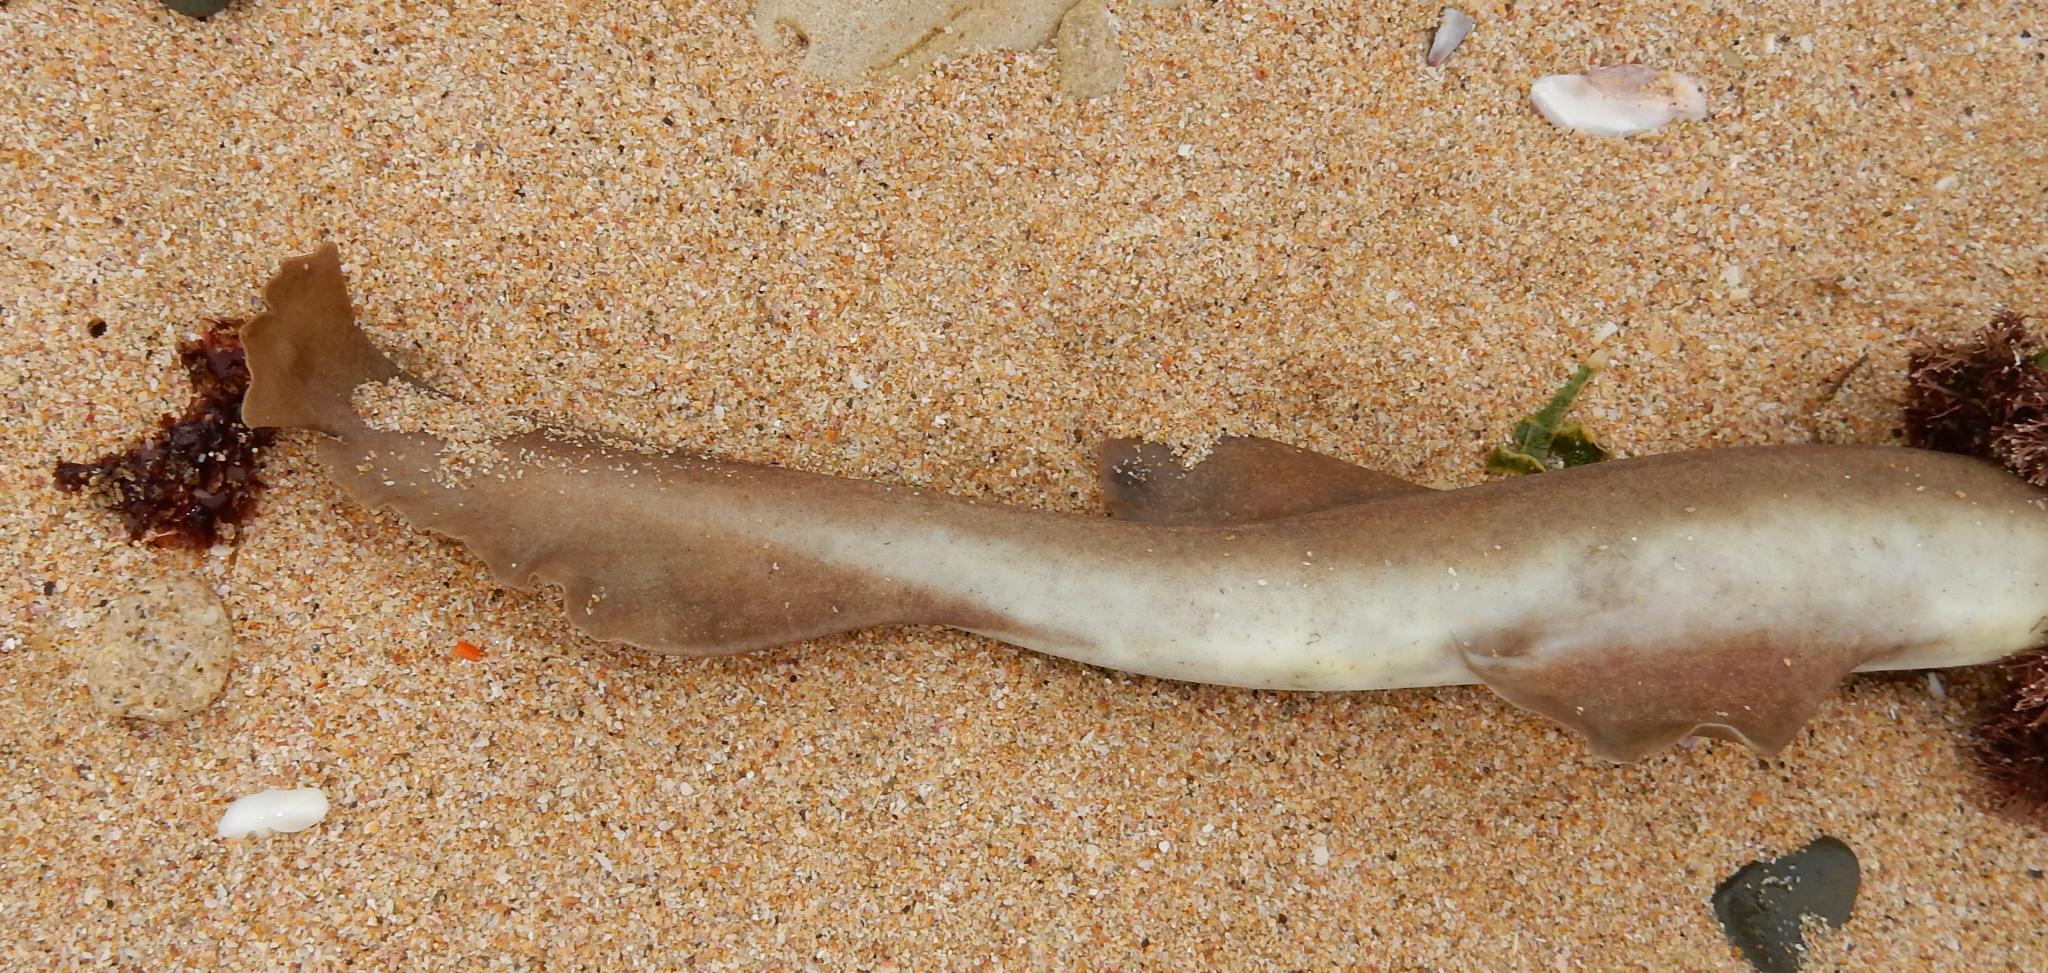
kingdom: Animalia
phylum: Chordata
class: Elasmobranchii
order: Carcharhiniformes
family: Scyliorhinidae
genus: Haploblepharus
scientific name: Haploblepharus fuscus
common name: Brown shyshark
